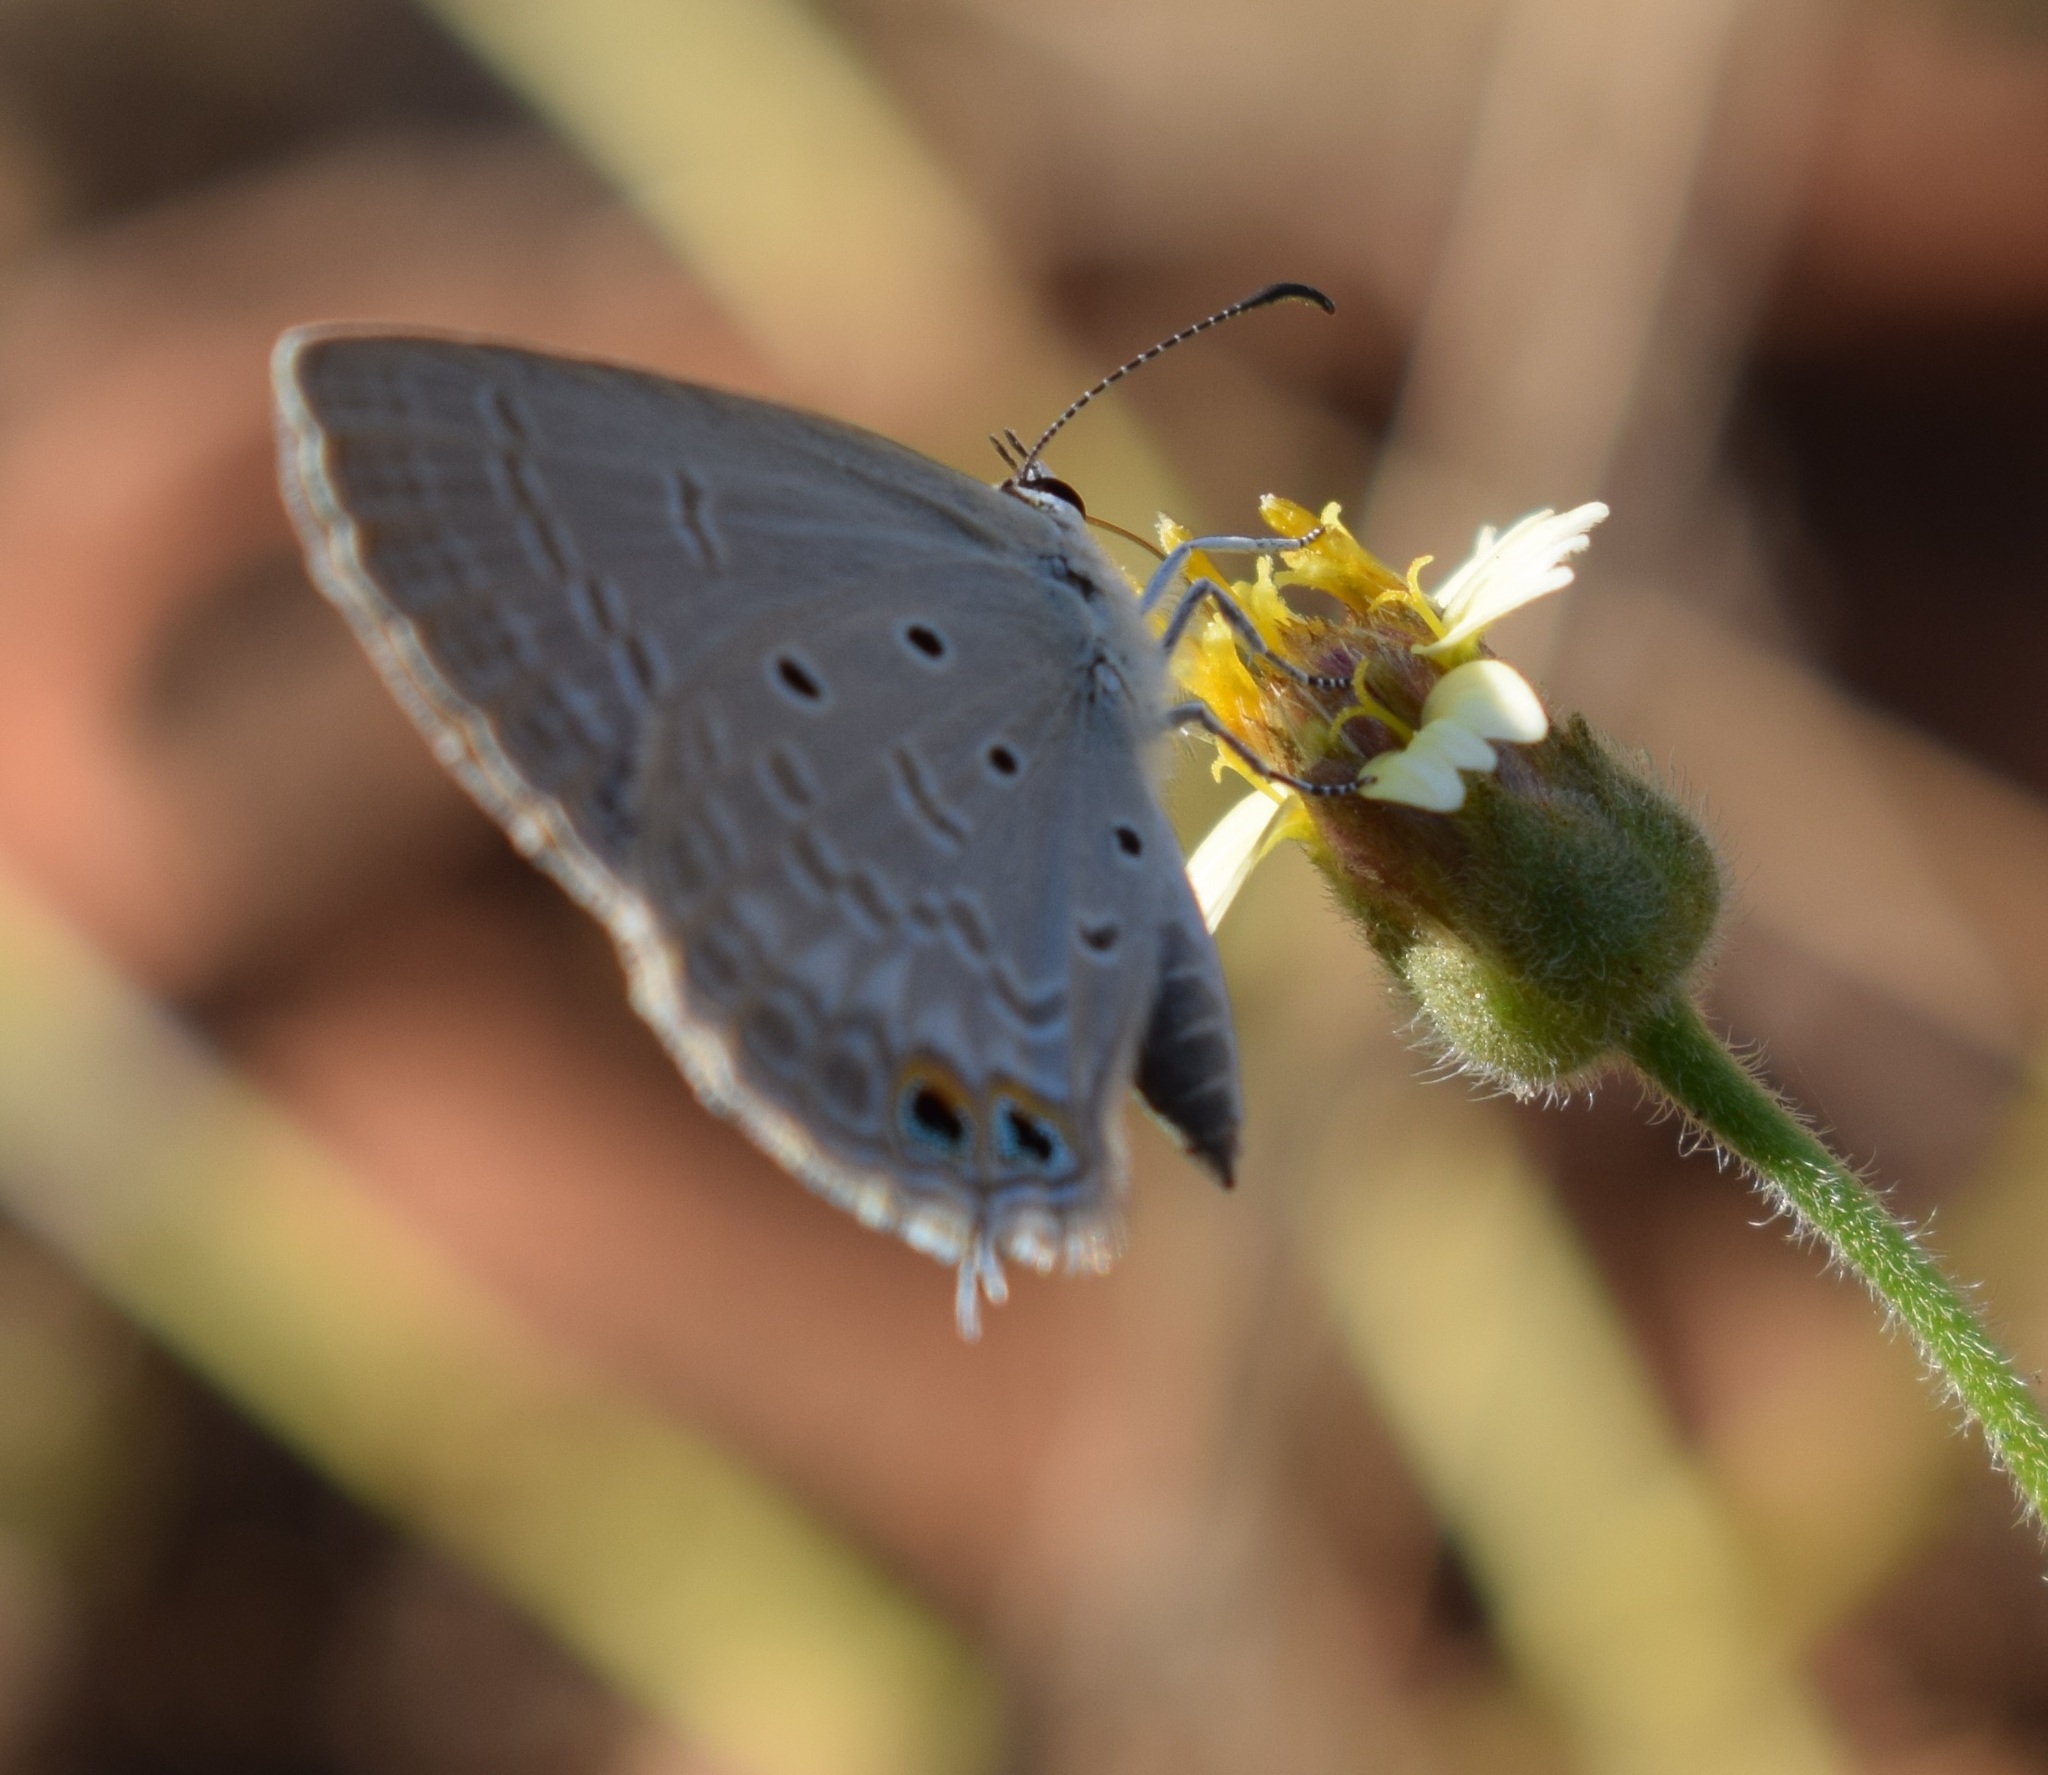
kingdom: Animalia
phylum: Arthropoda
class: Insecta
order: Lepidoptera
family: Lycaenidae
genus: Euchrysops
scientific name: Euchrysops cnejus
